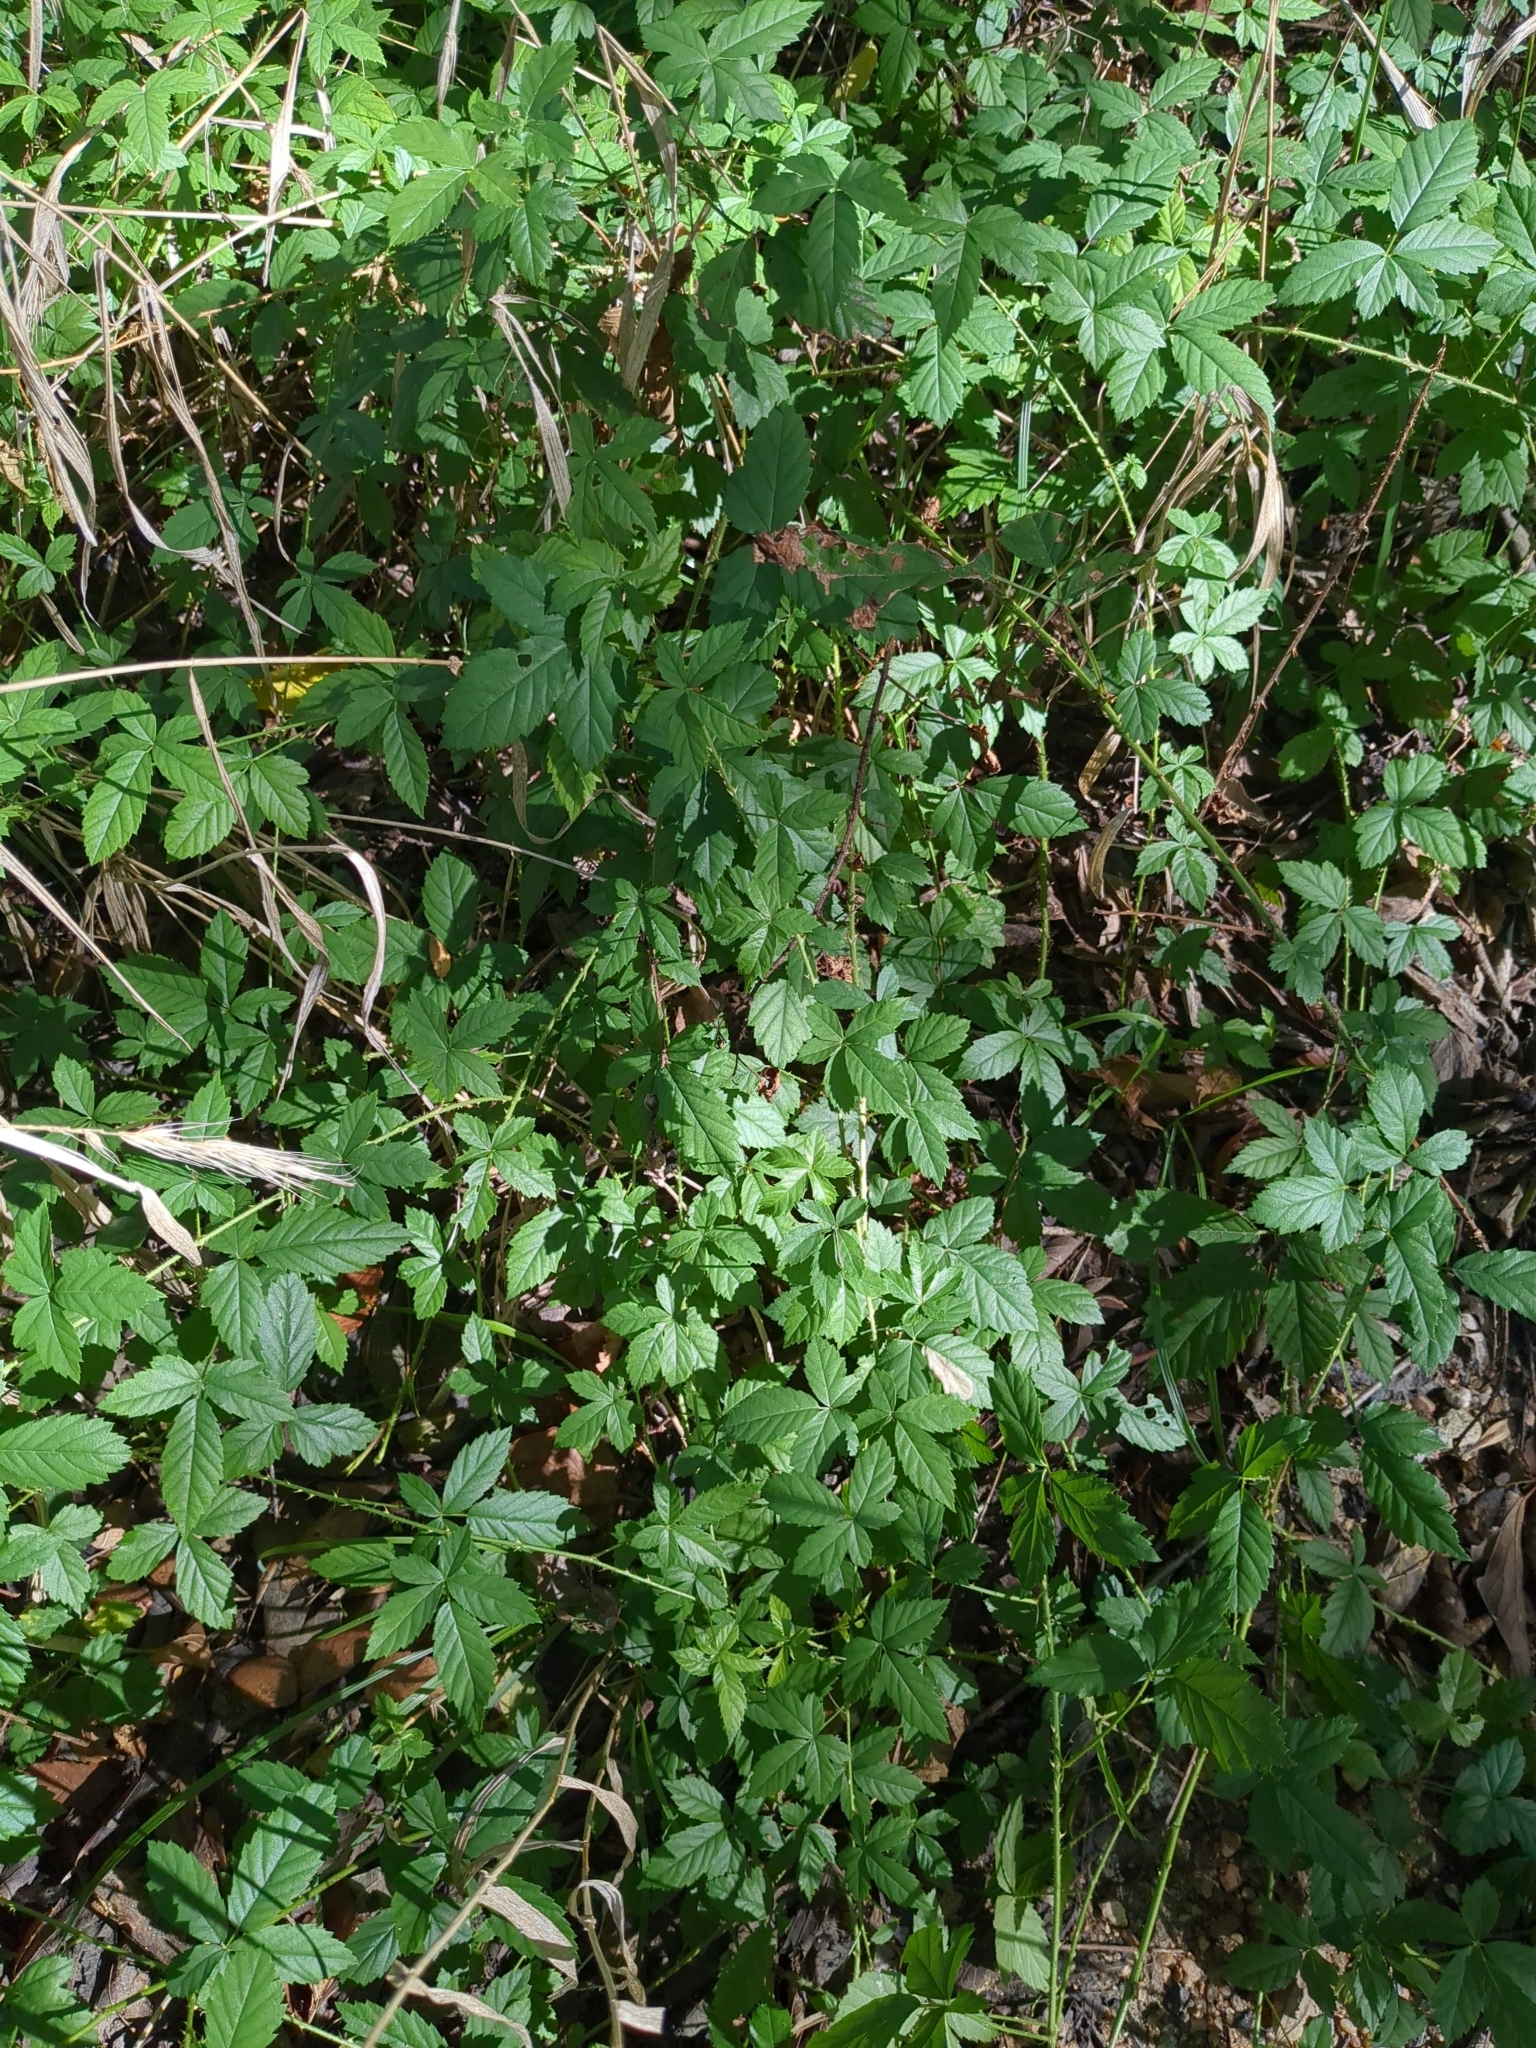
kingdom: Plantae
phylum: Tracheophyta
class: Magnoliopsida
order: Rosales
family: Rosaceae
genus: Rubus
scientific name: Rubus trivialis
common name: Southern dewberry
